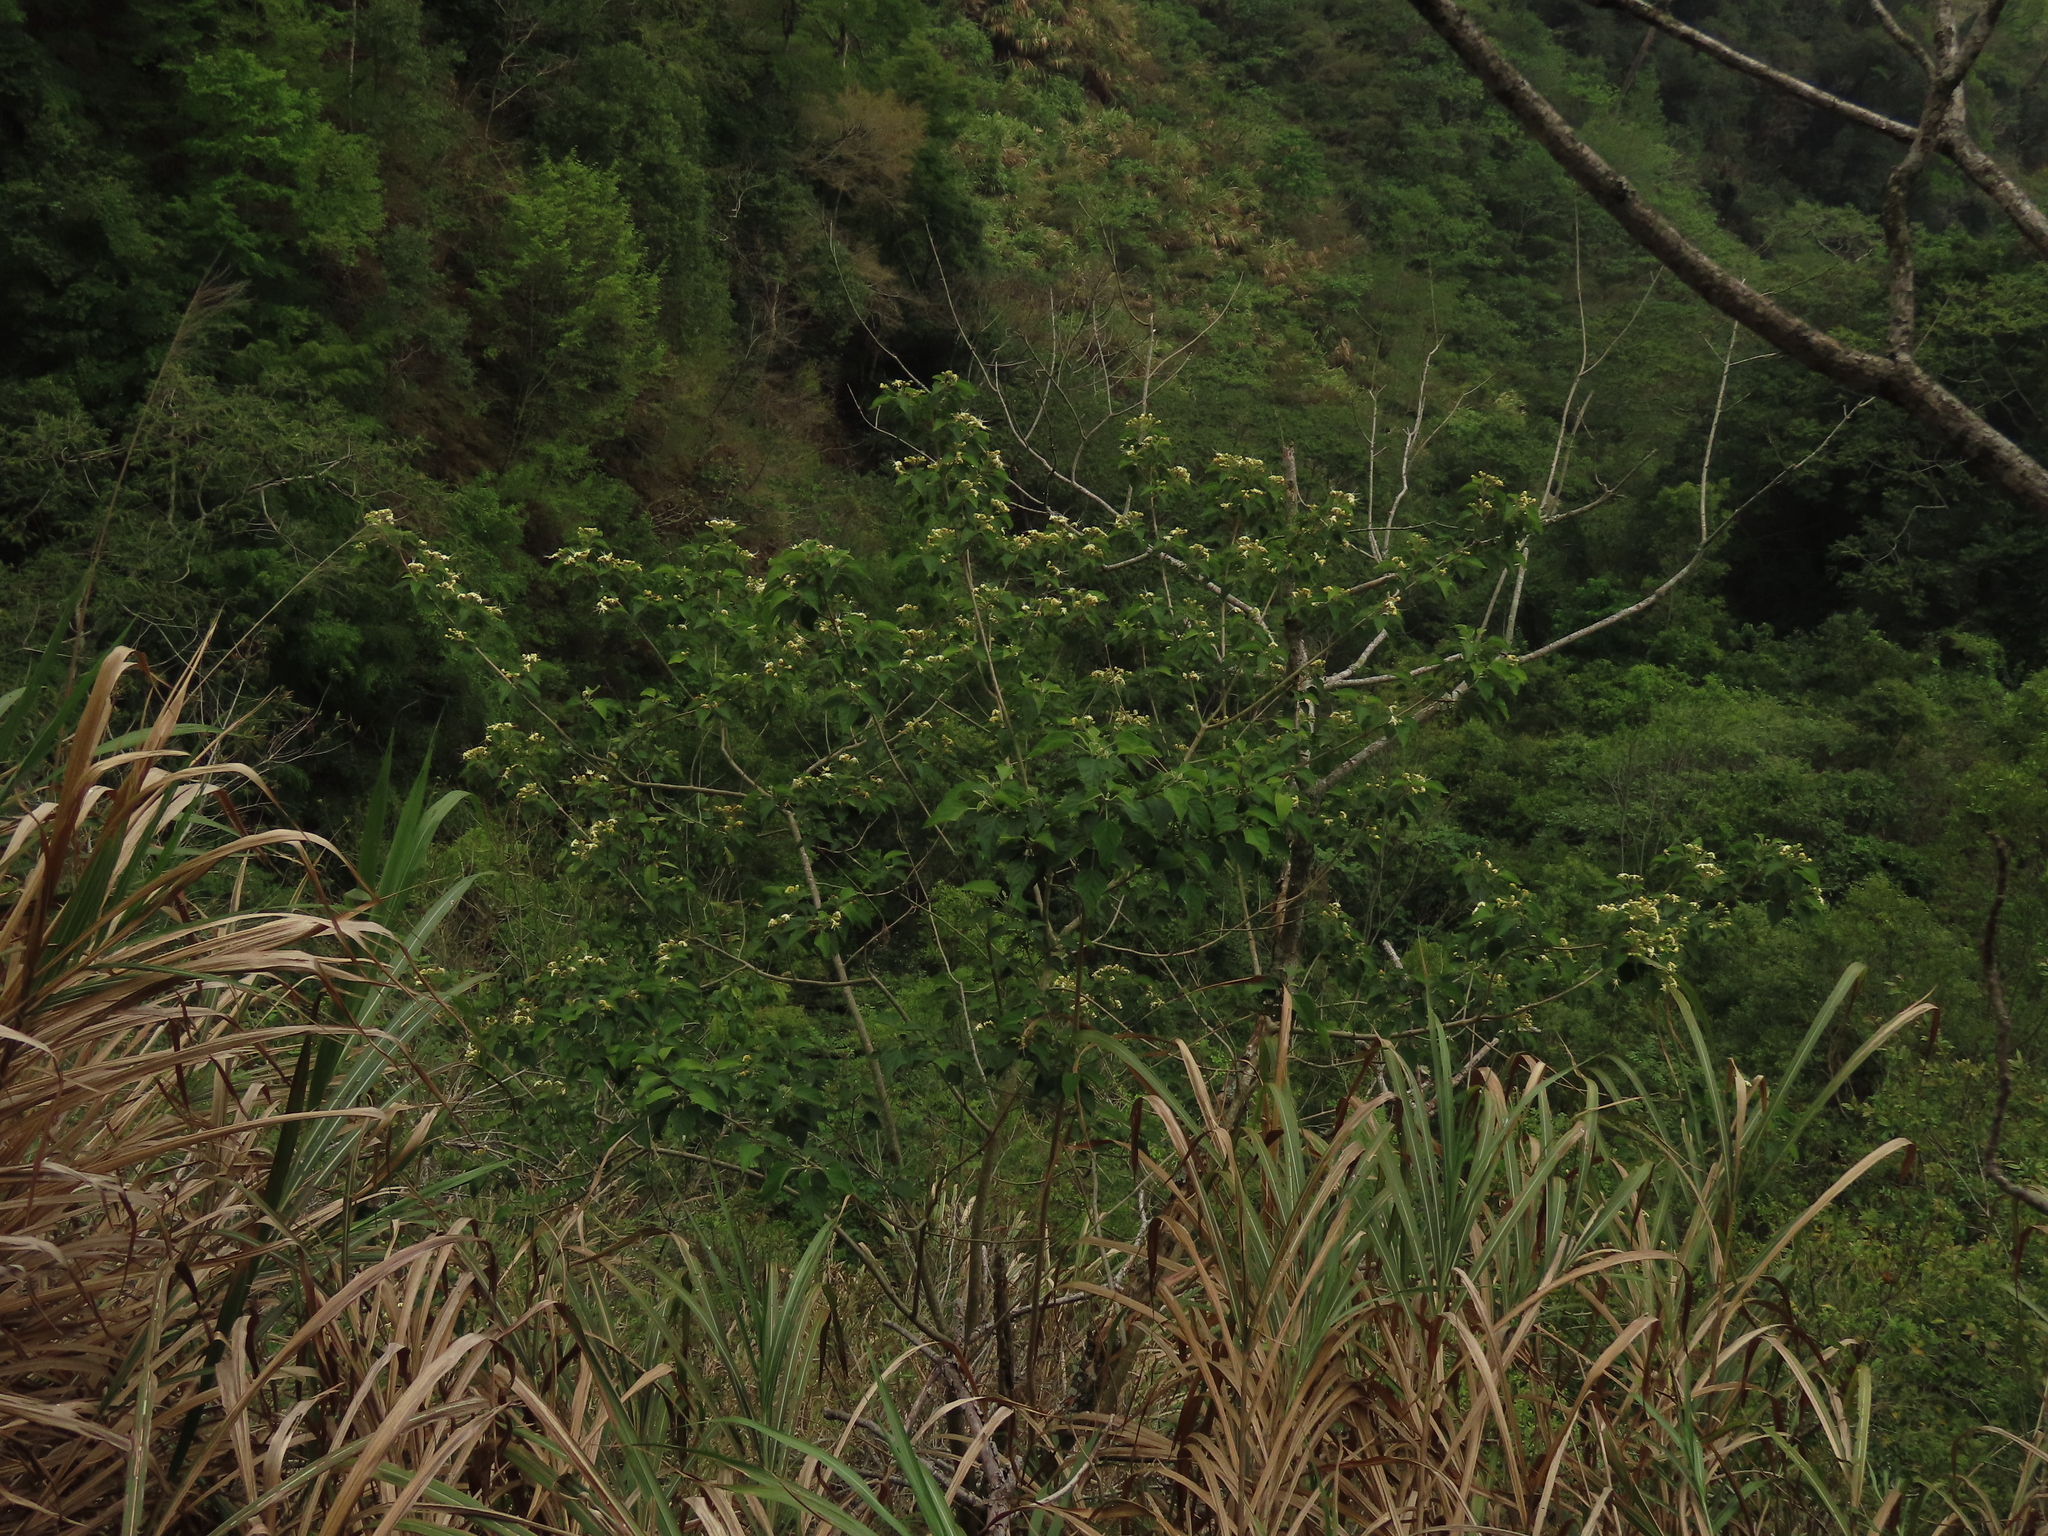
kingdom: Plantae
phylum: Tracheophyta
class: Magnoliopsida
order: Lamiales
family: Lamiaceae
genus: Clerodendrum
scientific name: Clerodendrum trichotomum
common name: Harlequin glorybower
